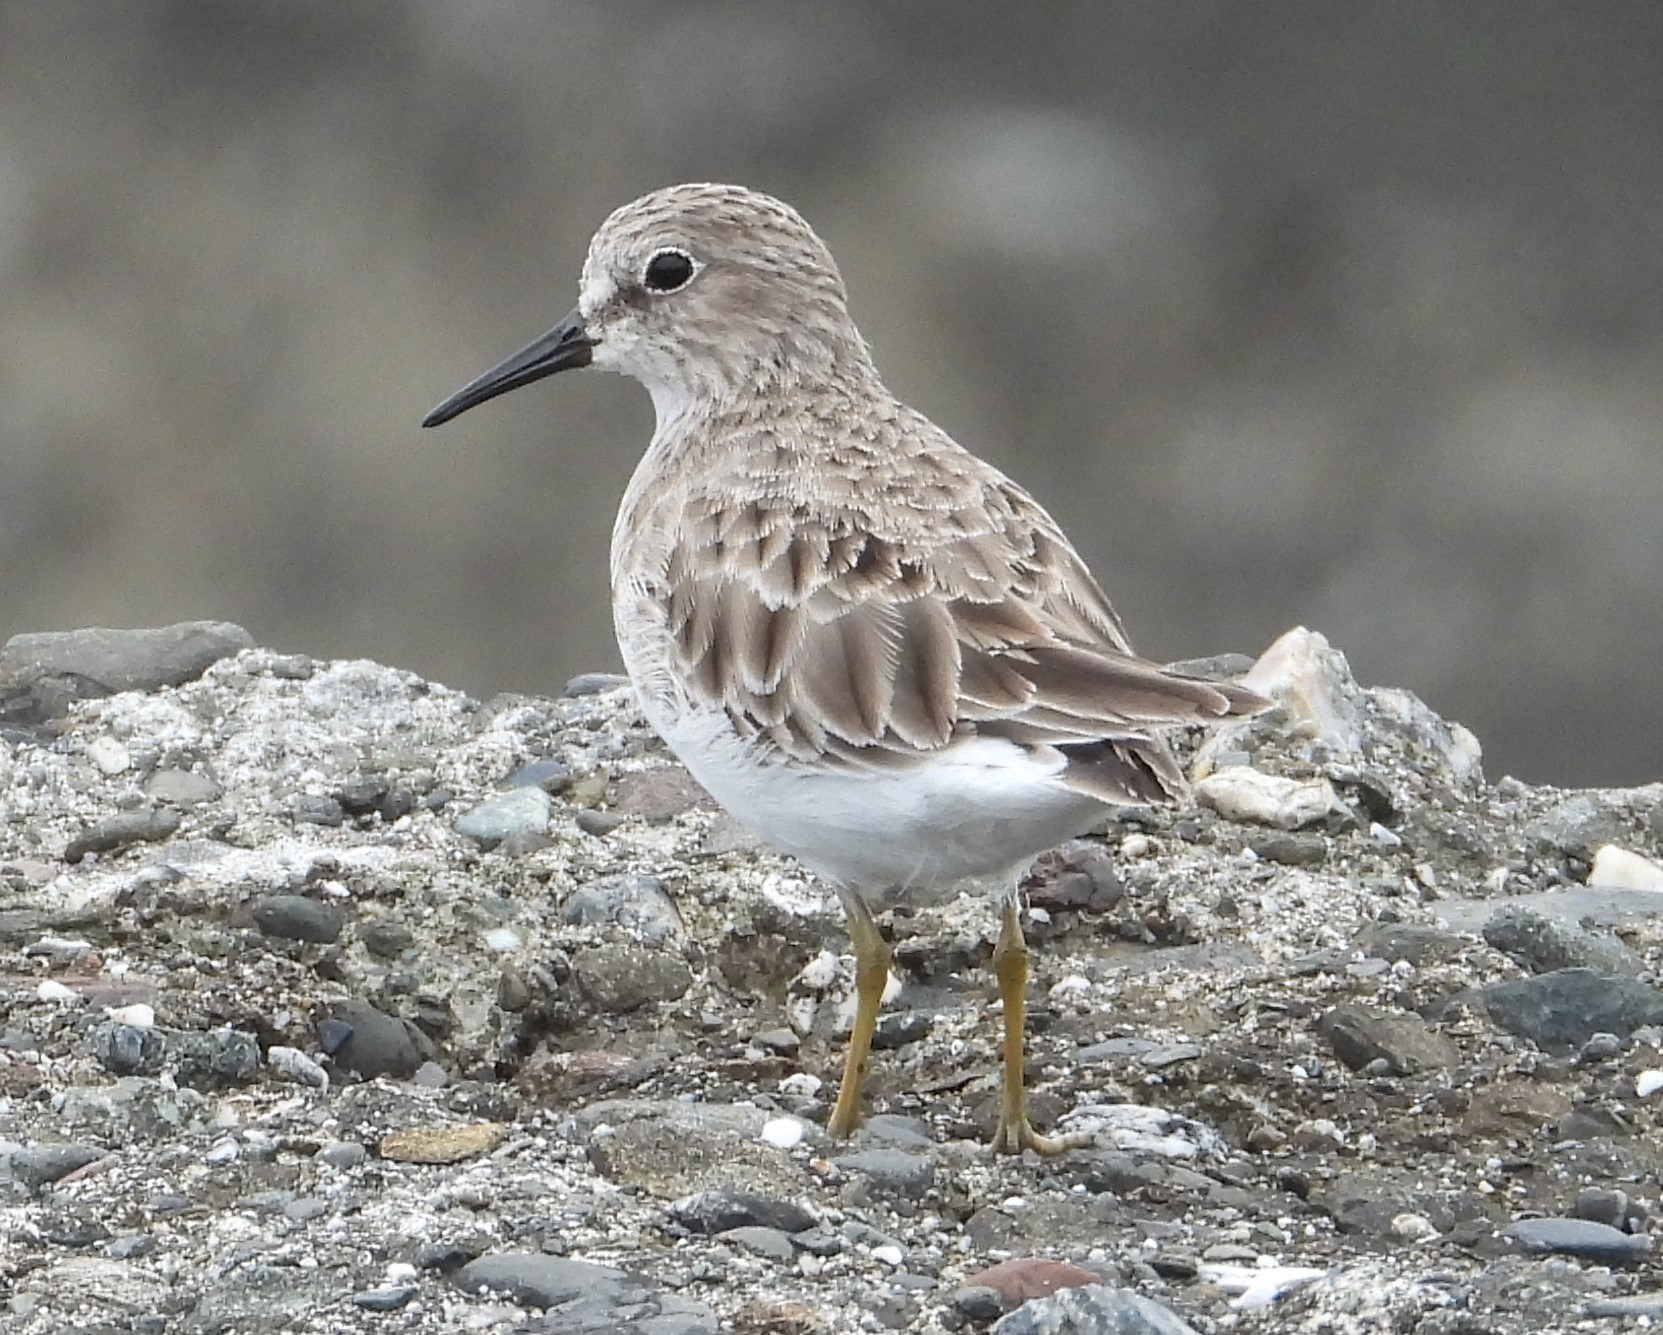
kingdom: Animalia
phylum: Chordata
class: Aves
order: Charadriiformes
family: Scolopacidae
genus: Calidris
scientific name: Calidris minutilla
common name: Least sandpiper
